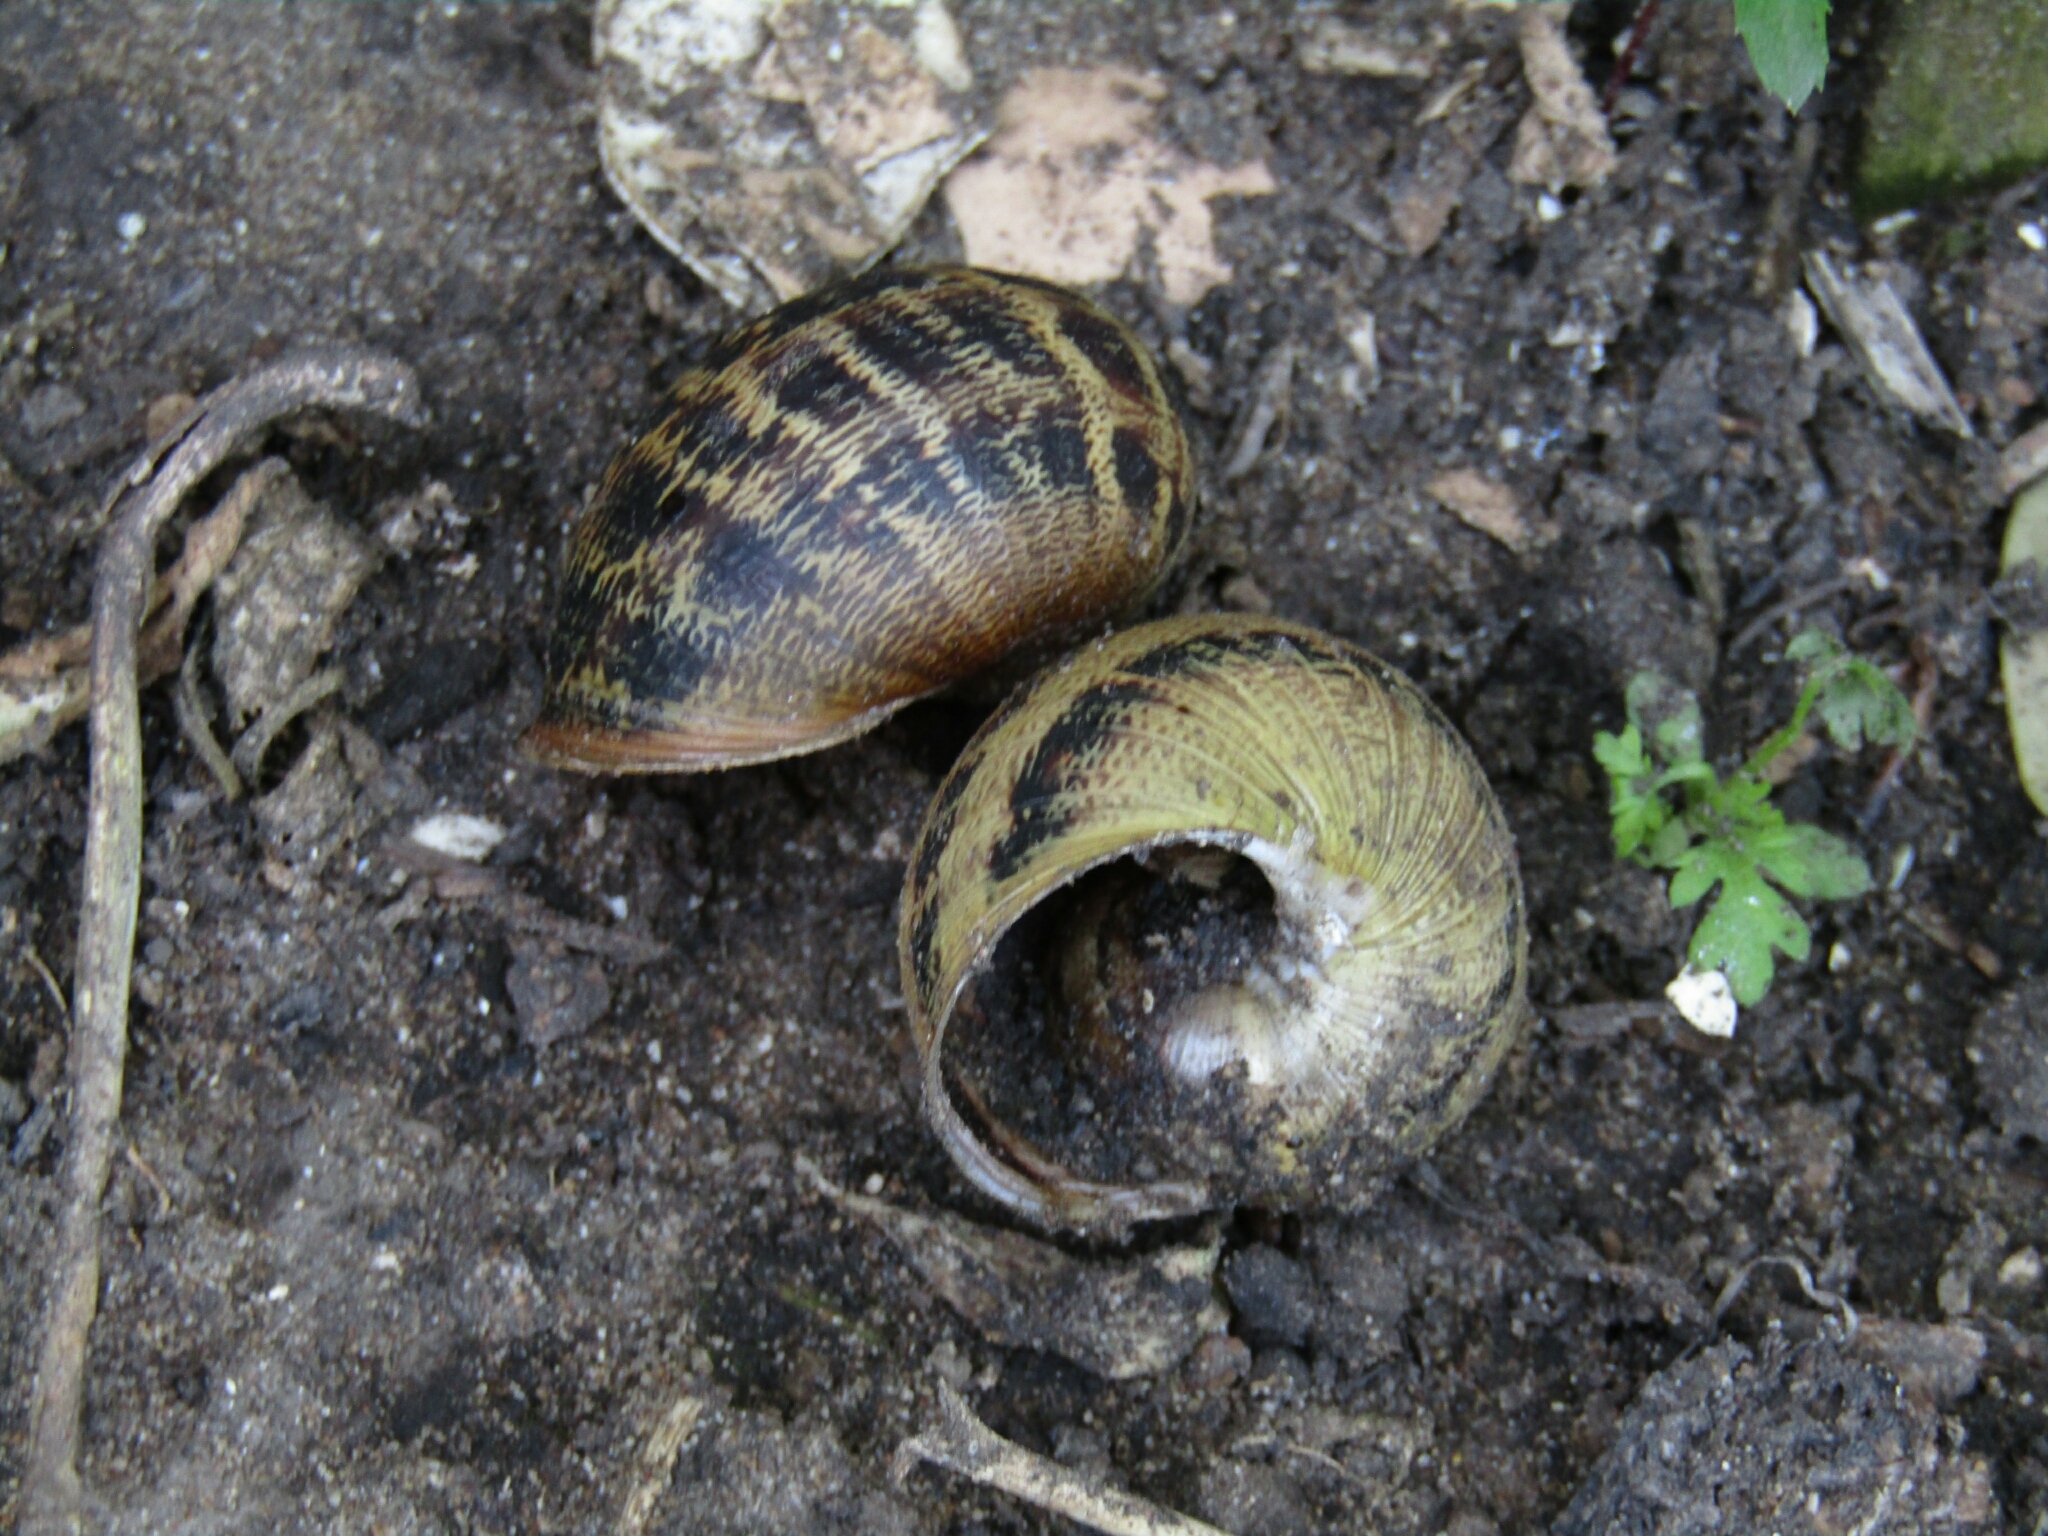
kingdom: Animalia
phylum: Mollusca
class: Gastropoda
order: Stylommatophora
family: Helicidae
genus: Cornu
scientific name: Cornu aspersum
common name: Brown garden snail
